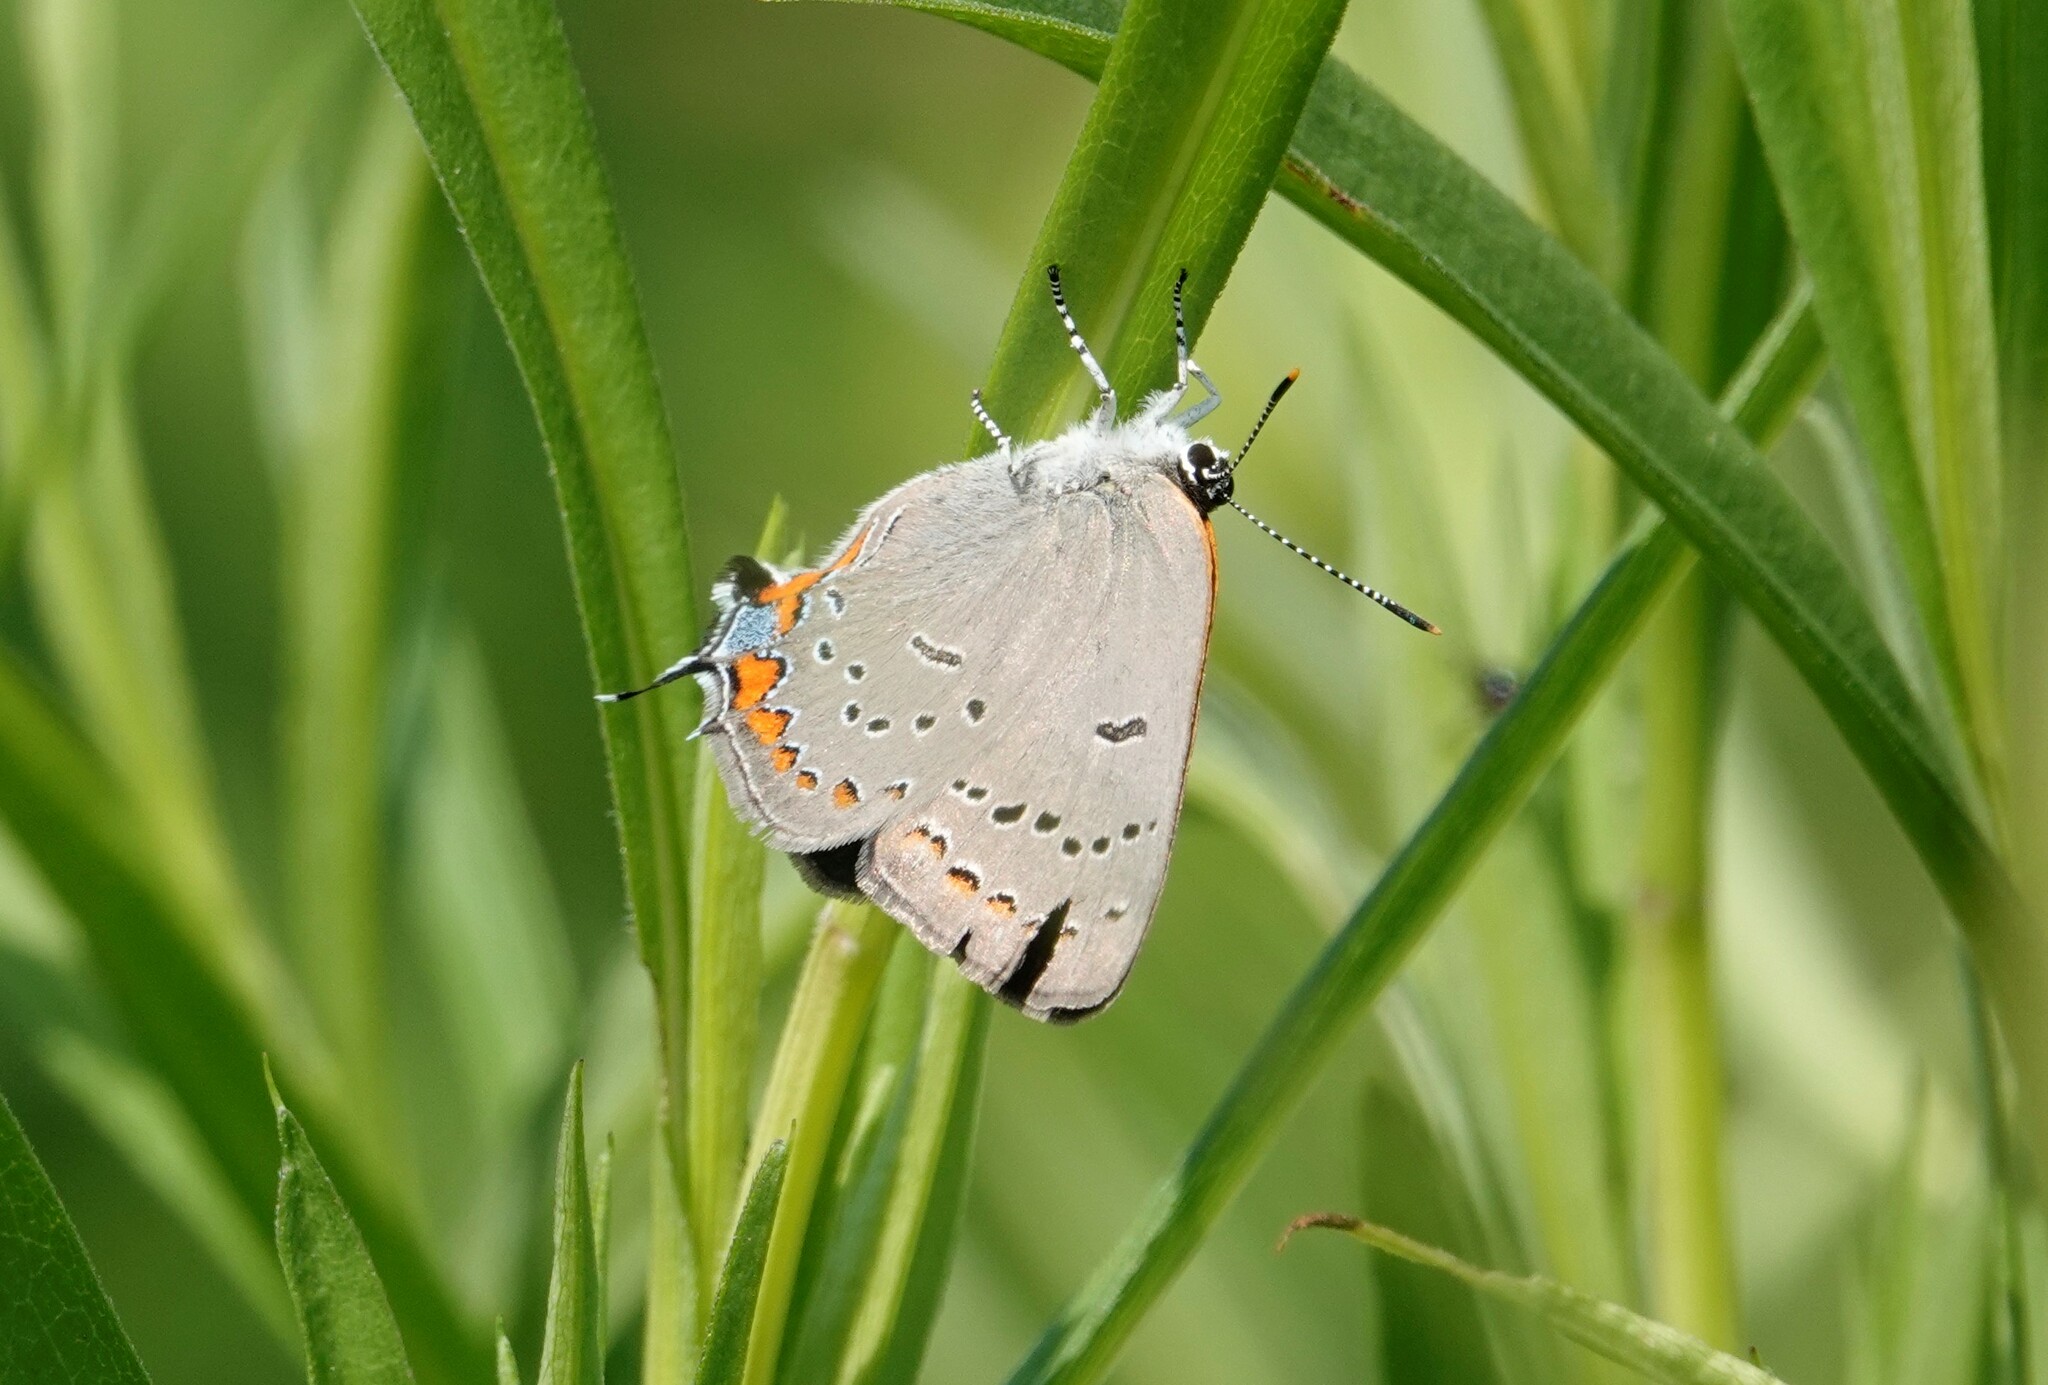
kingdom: Animalia
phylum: Arthropoda
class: Insecta
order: Lepidoptera
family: Lycaenidae
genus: Strymon
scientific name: Strymon acadica
